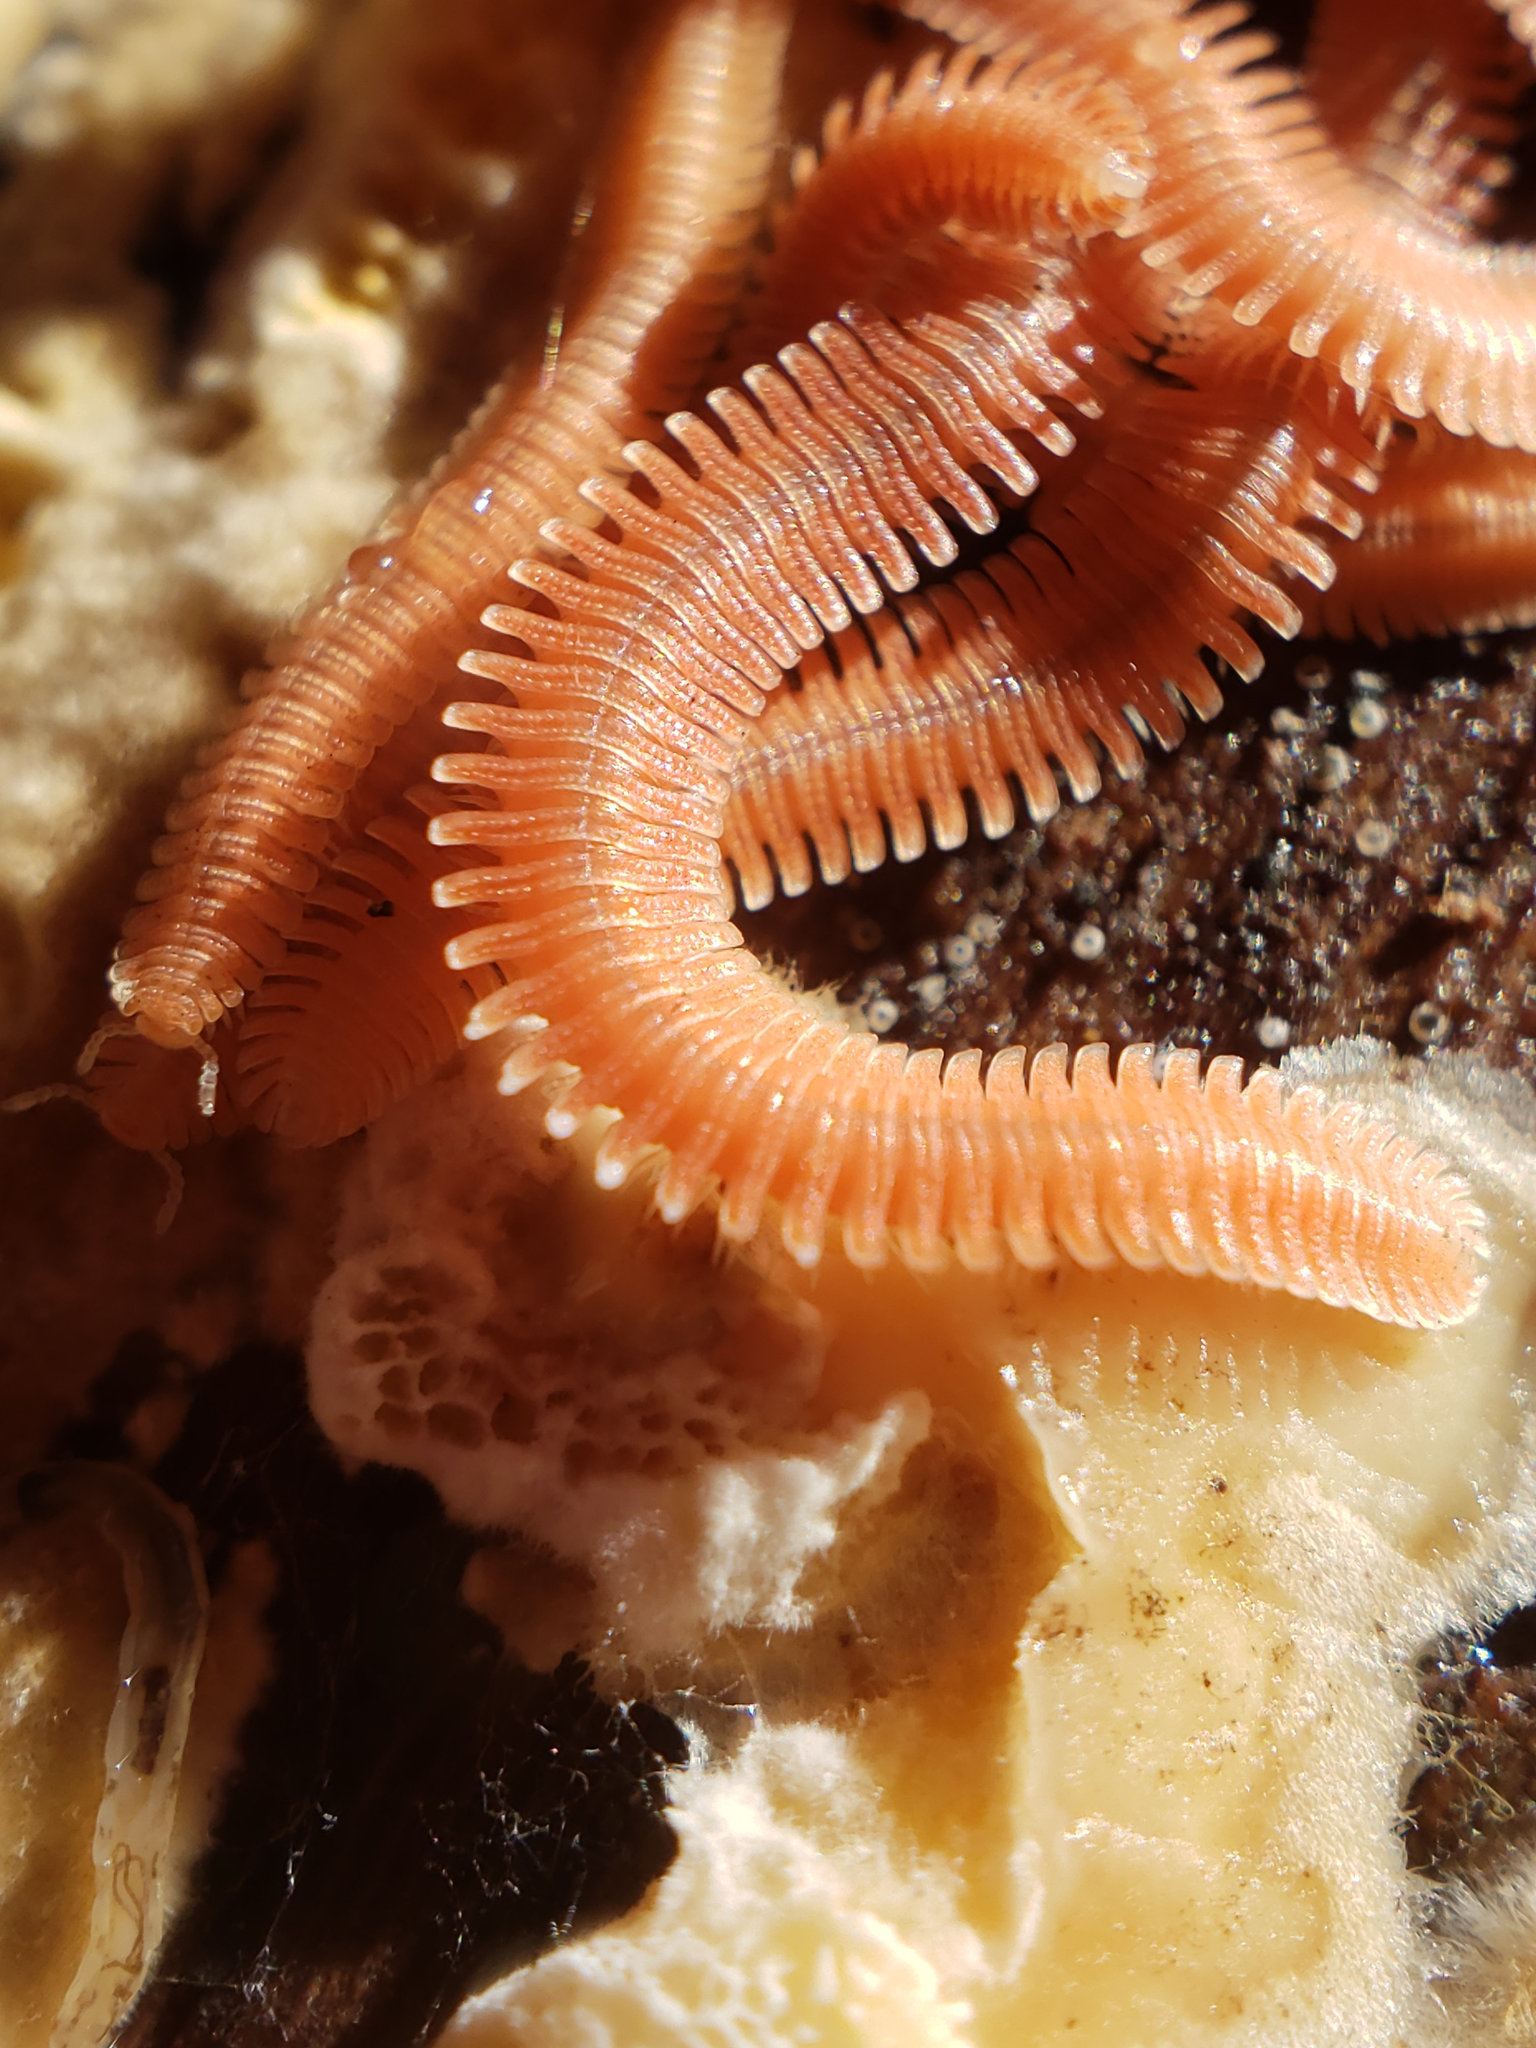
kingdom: Animalia
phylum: Arthropoda
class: Diplopoda
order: Platydesmida
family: Andrognathidae
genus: Brachycybe
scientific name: Brachycybe rosea
